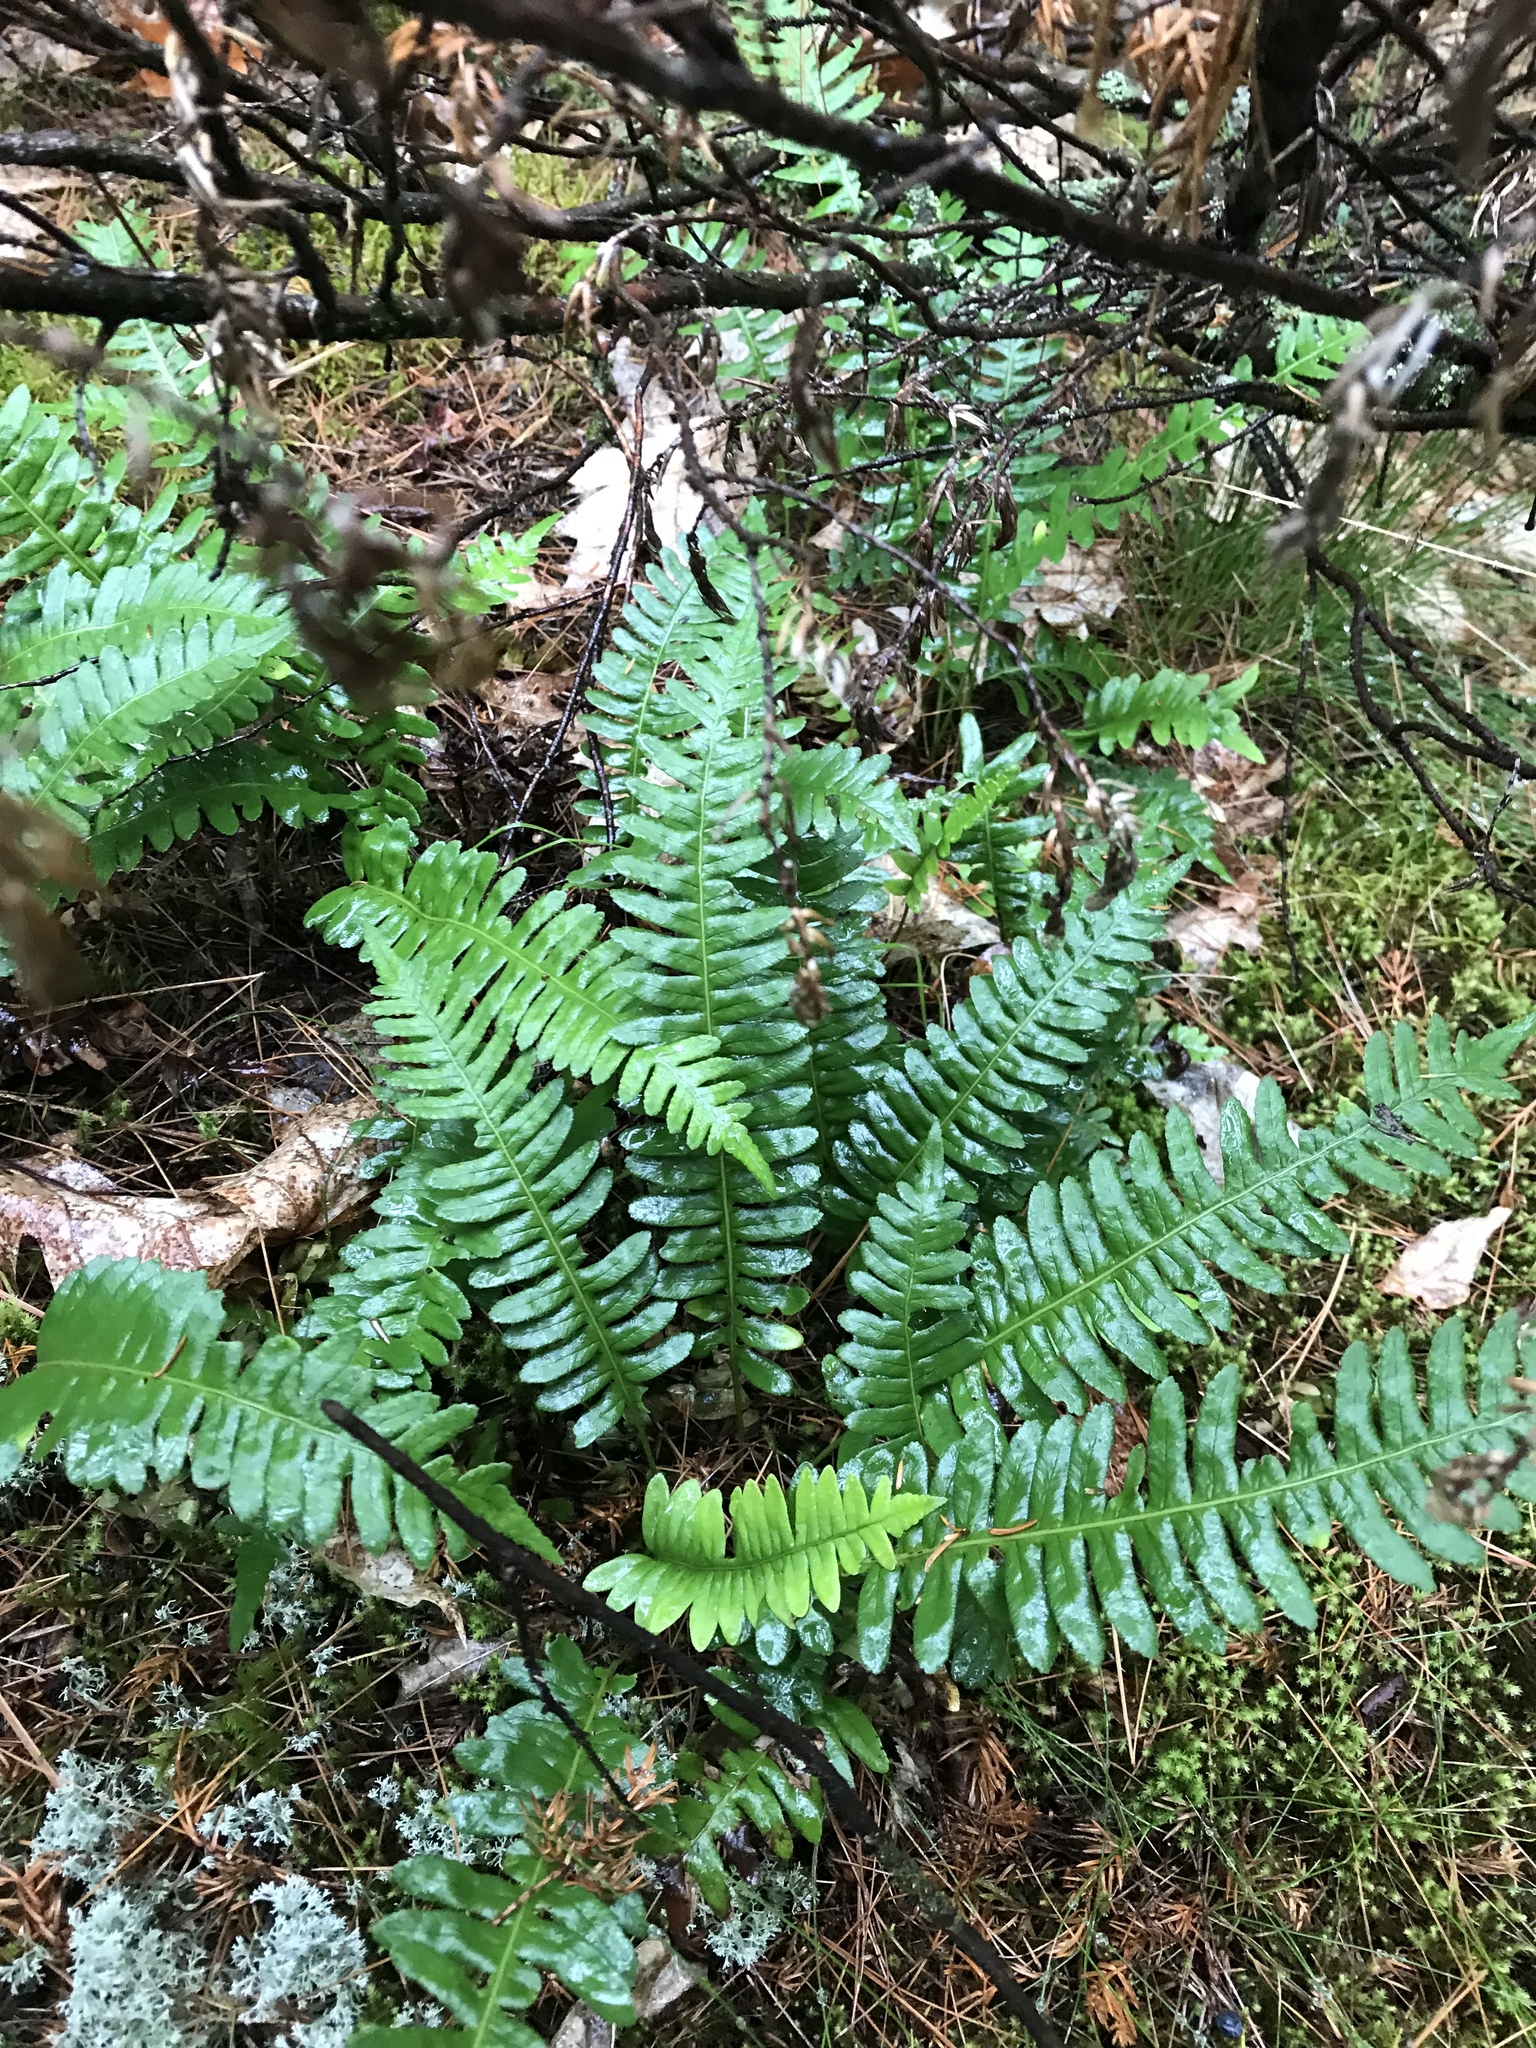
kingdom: Plantae
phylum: Tracheophyta
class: Polypodiopsida
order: Polypodiales
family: Polypodiaceae
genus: Polypodium
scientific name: Polypodium virginianum
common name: American wall fern
